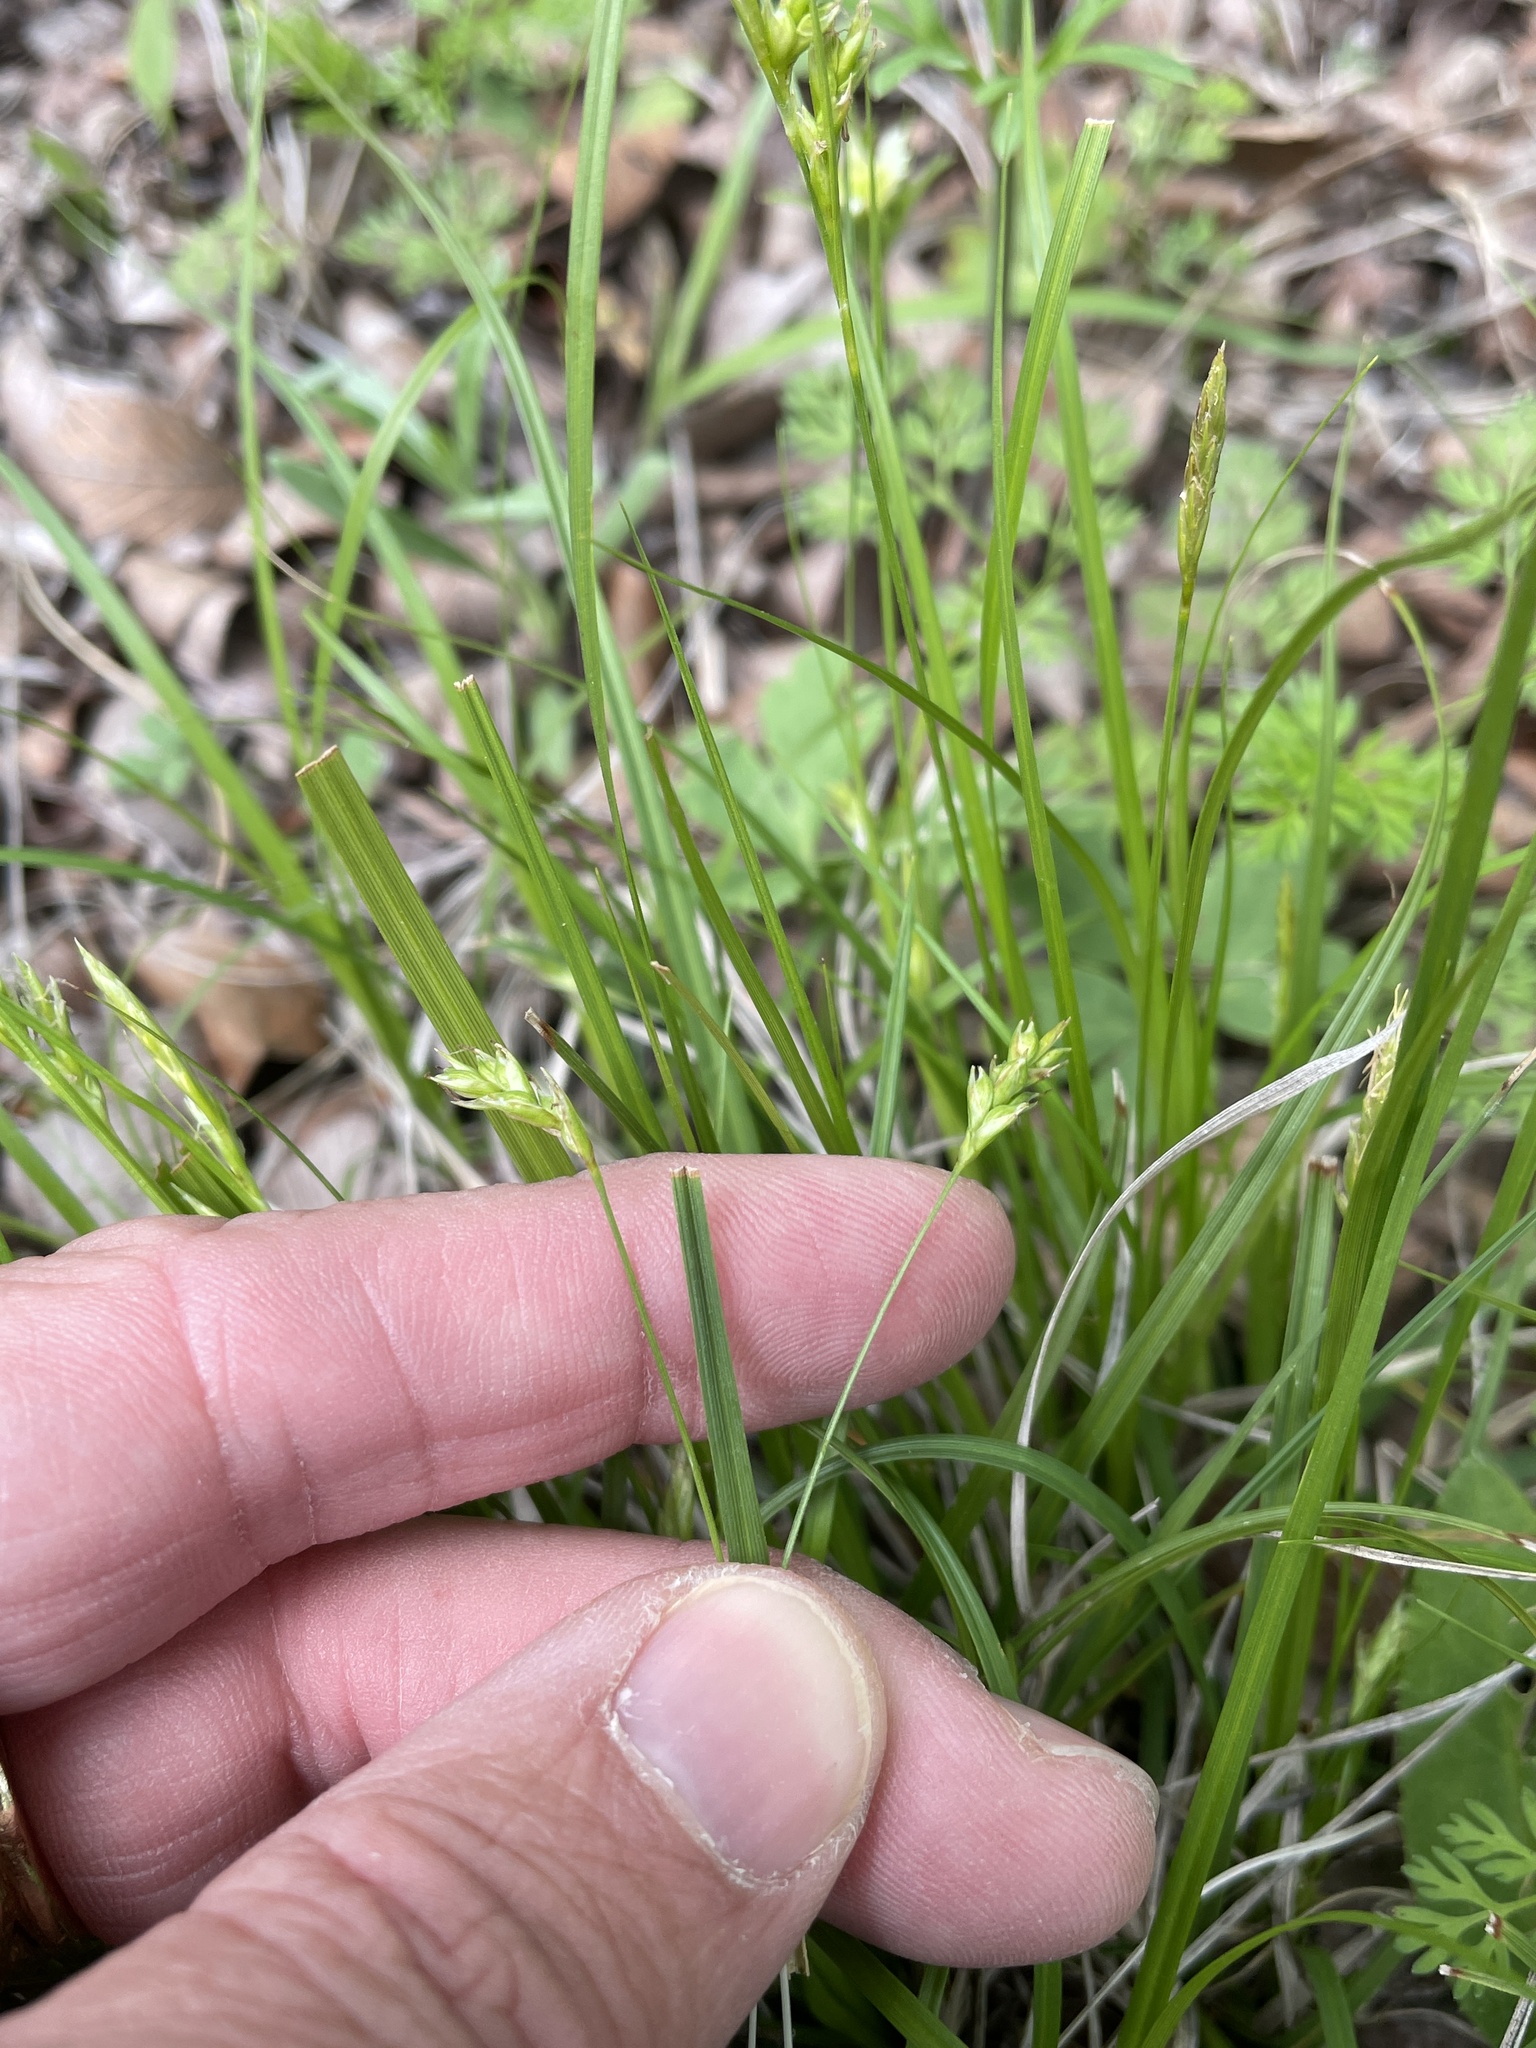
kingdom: Plantae
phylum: Tracheophyta
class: Liliopsida
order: Poales
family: Cyperaceae
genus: Carex
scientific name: Carex planostachys
